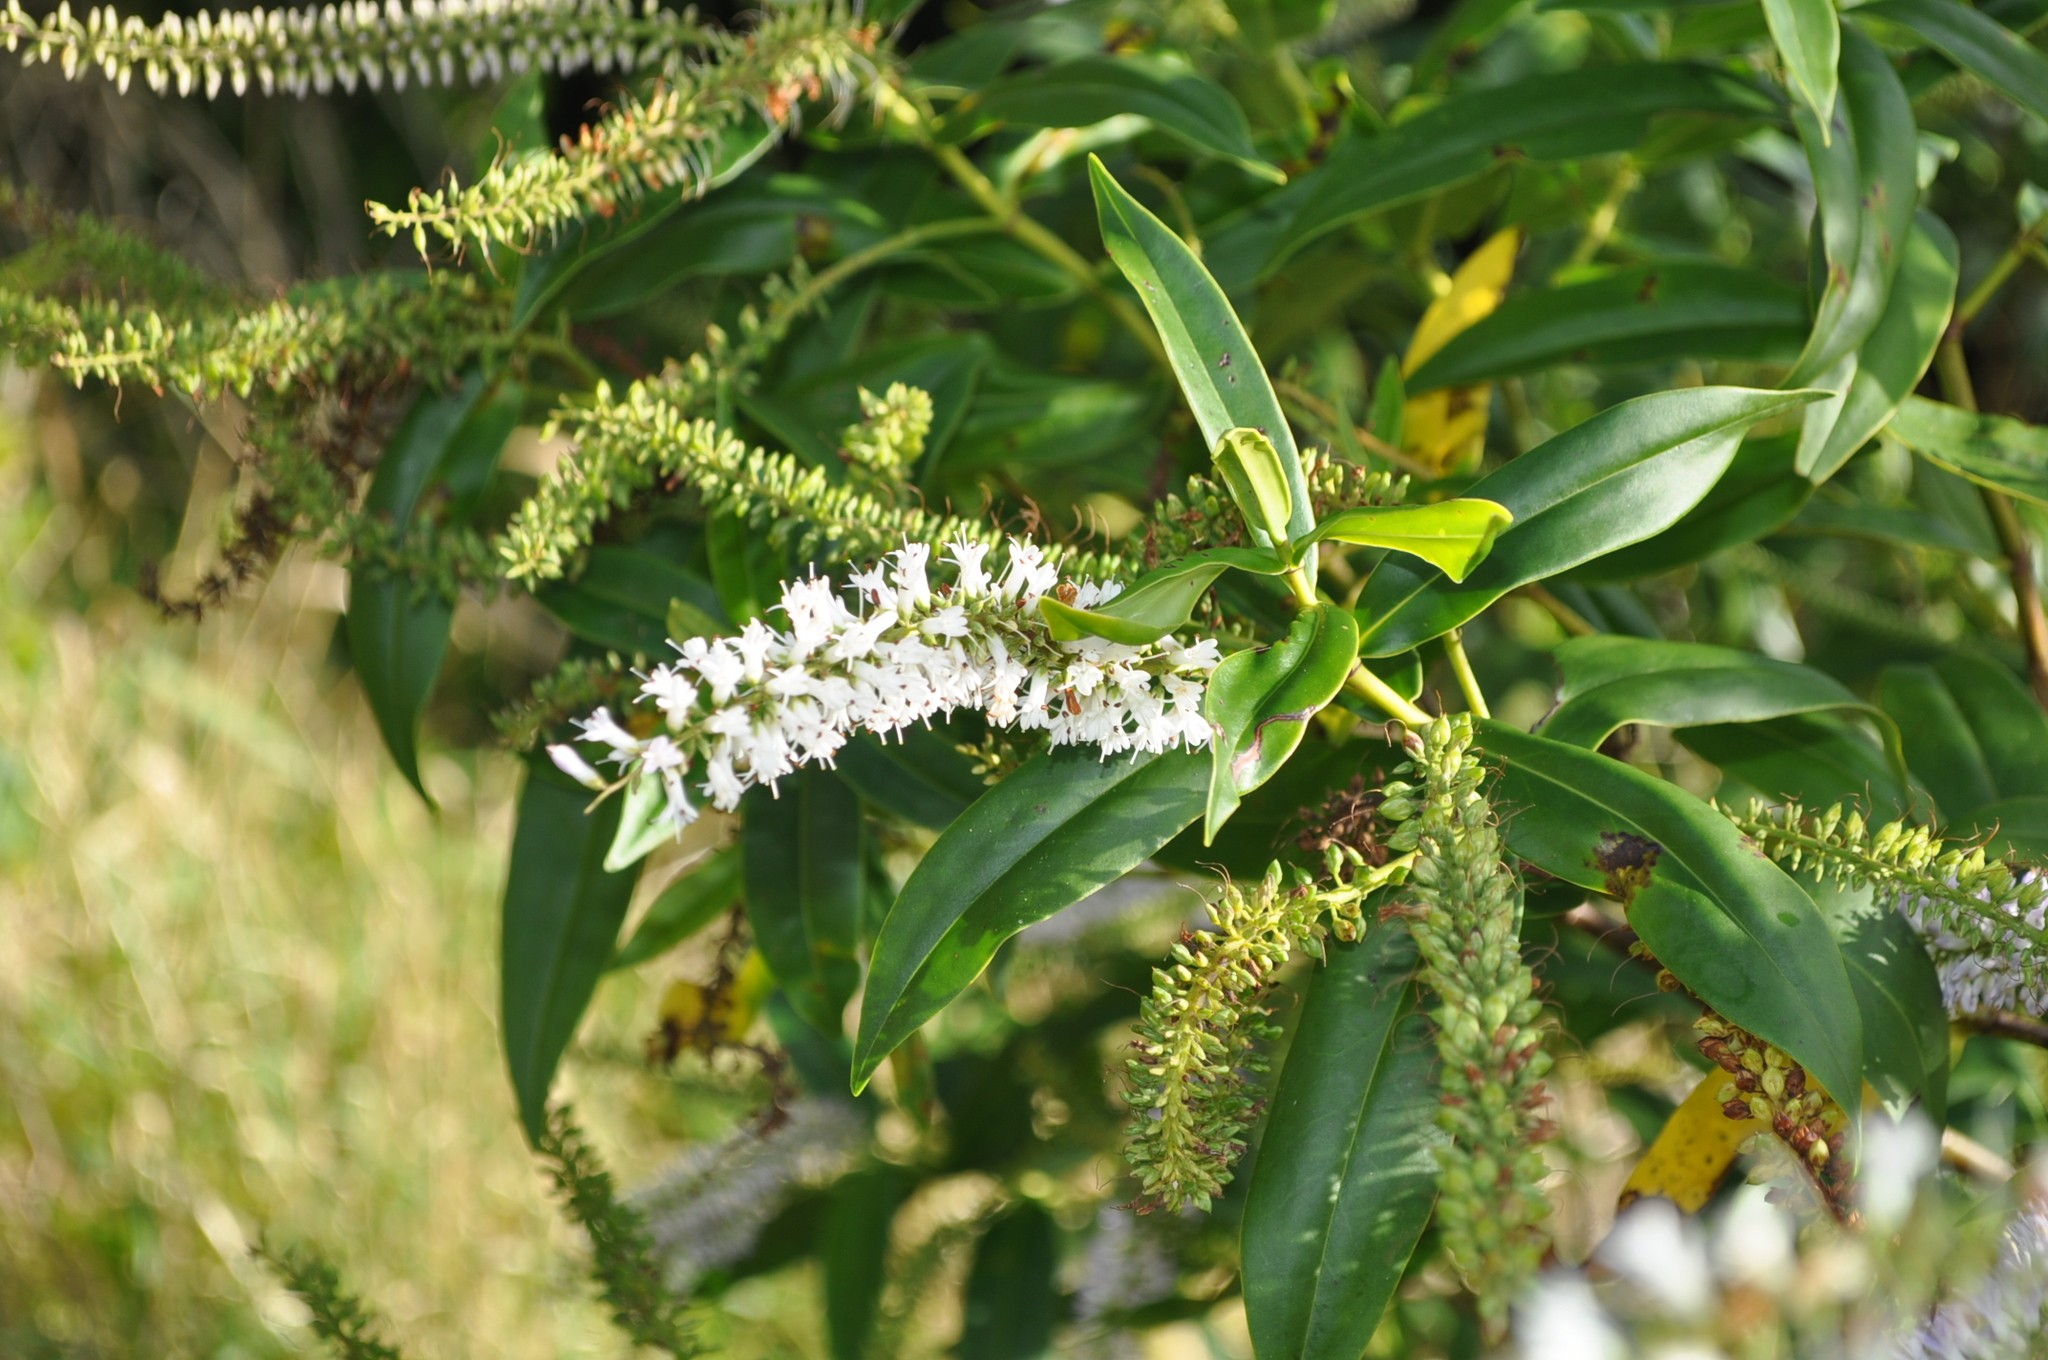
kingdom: Plantae
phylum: Tracheophyta
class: Magnoliopsida
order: Lamiales
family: Plantaginaceae
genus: Veronica
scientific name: Veronica stricta
